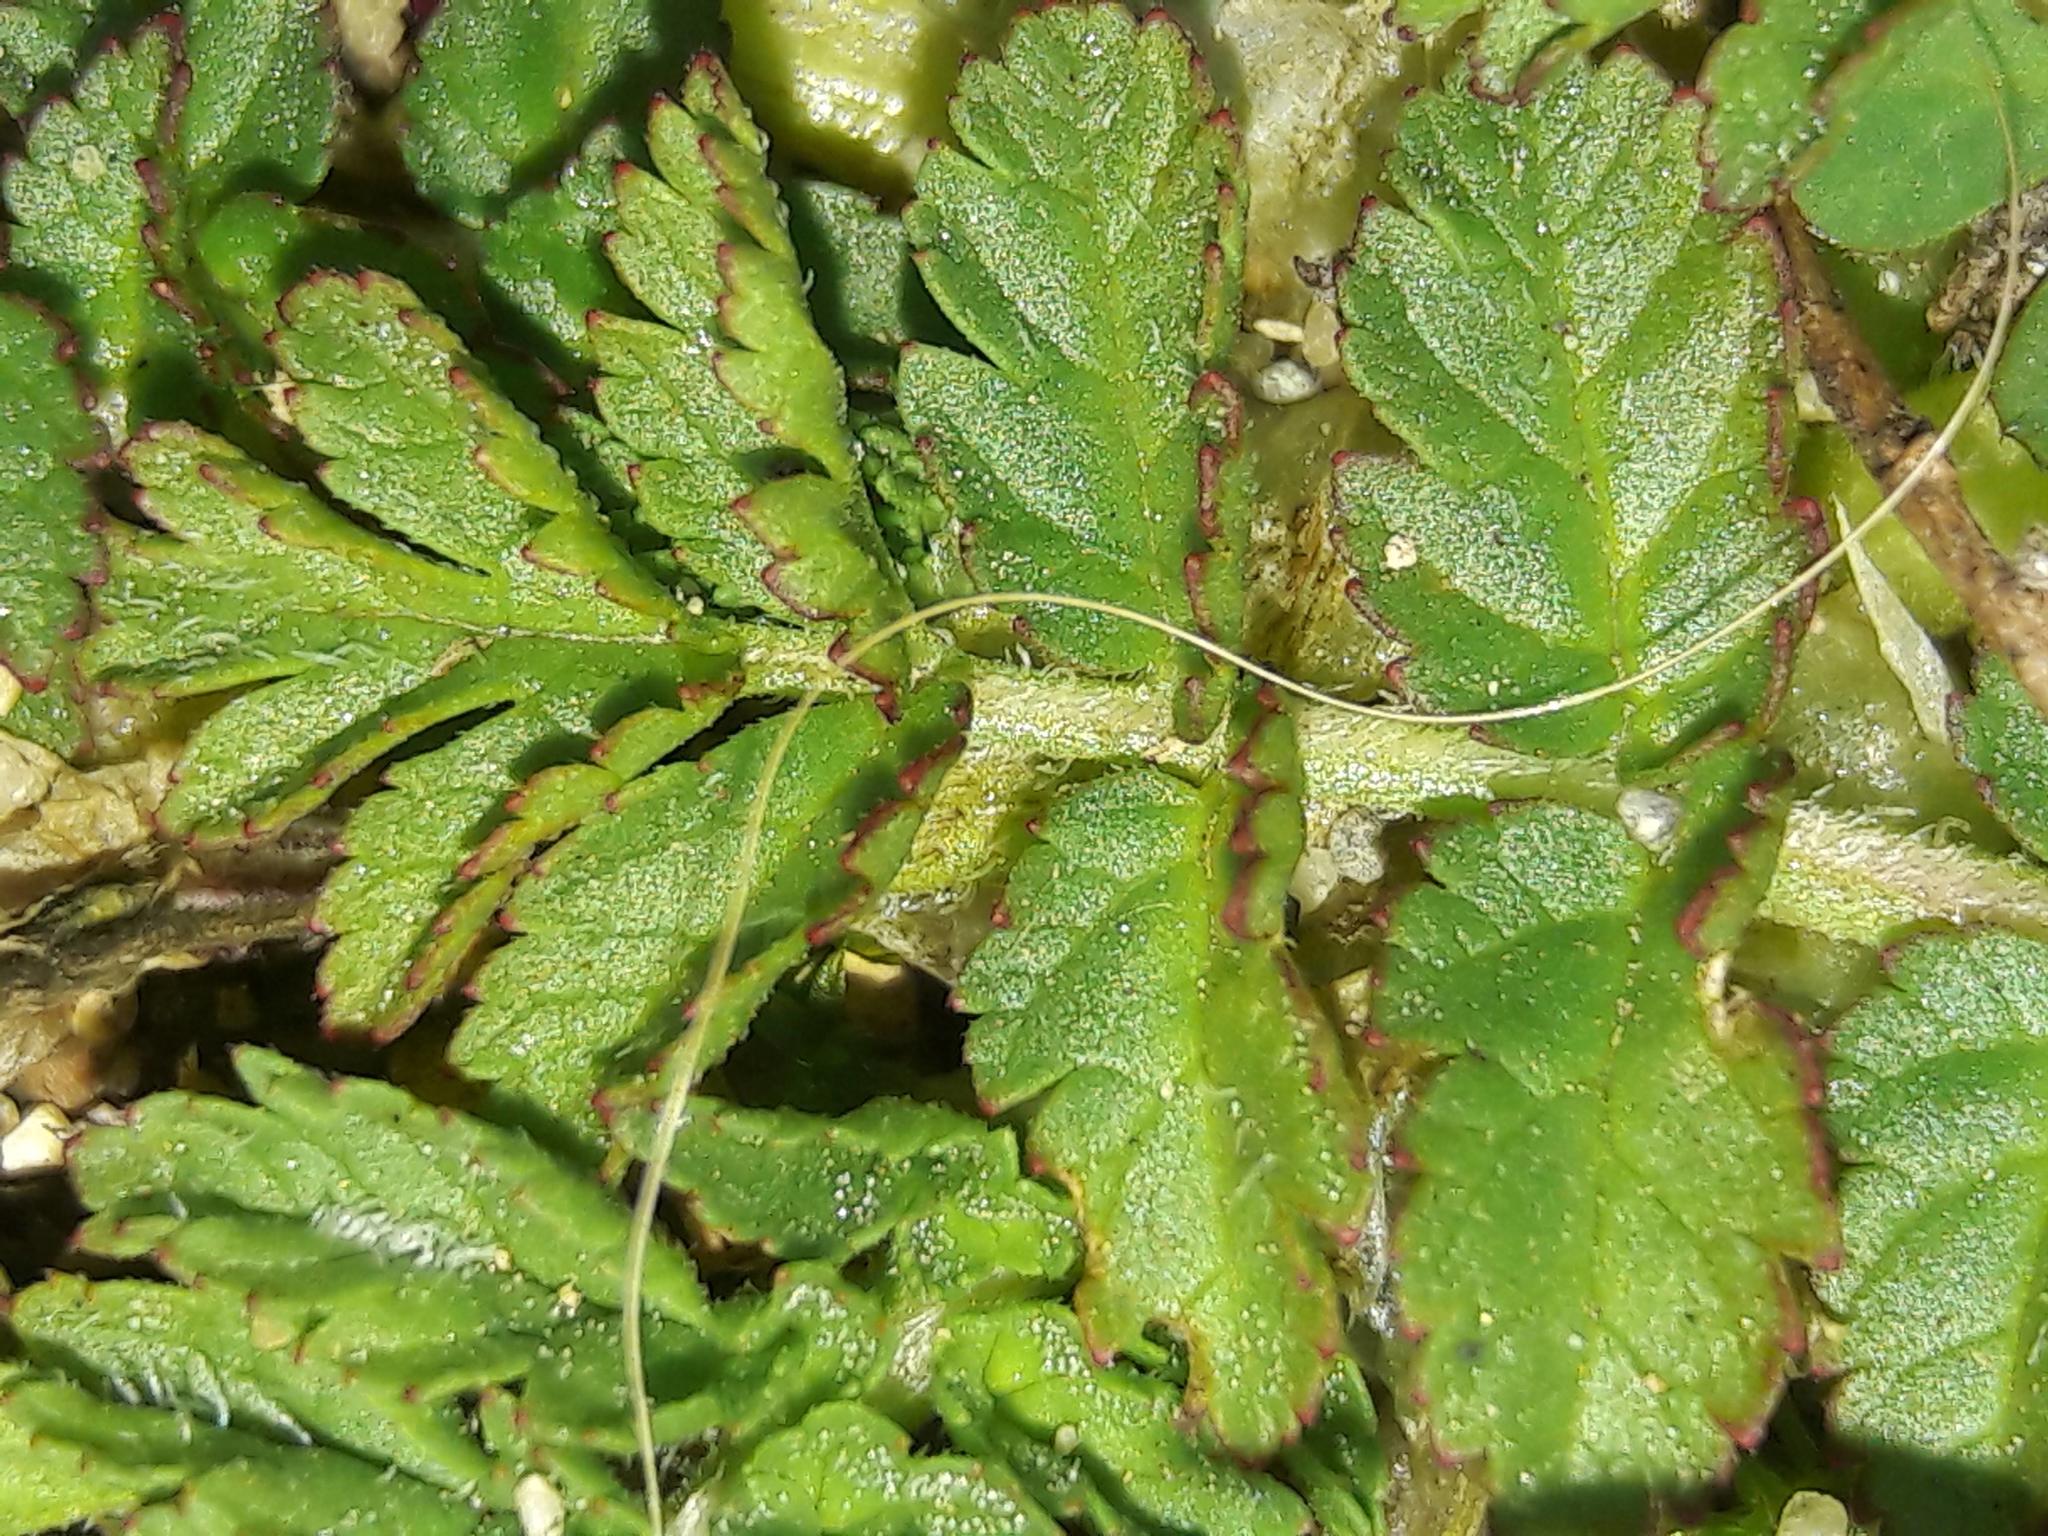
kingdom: Plantae
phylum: Tracheophyta
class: Magnoliopsida
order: Geraniales
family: Geraniaceae
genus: Erodium
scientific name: Erodium moschatum
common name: Musk stork's-bill
